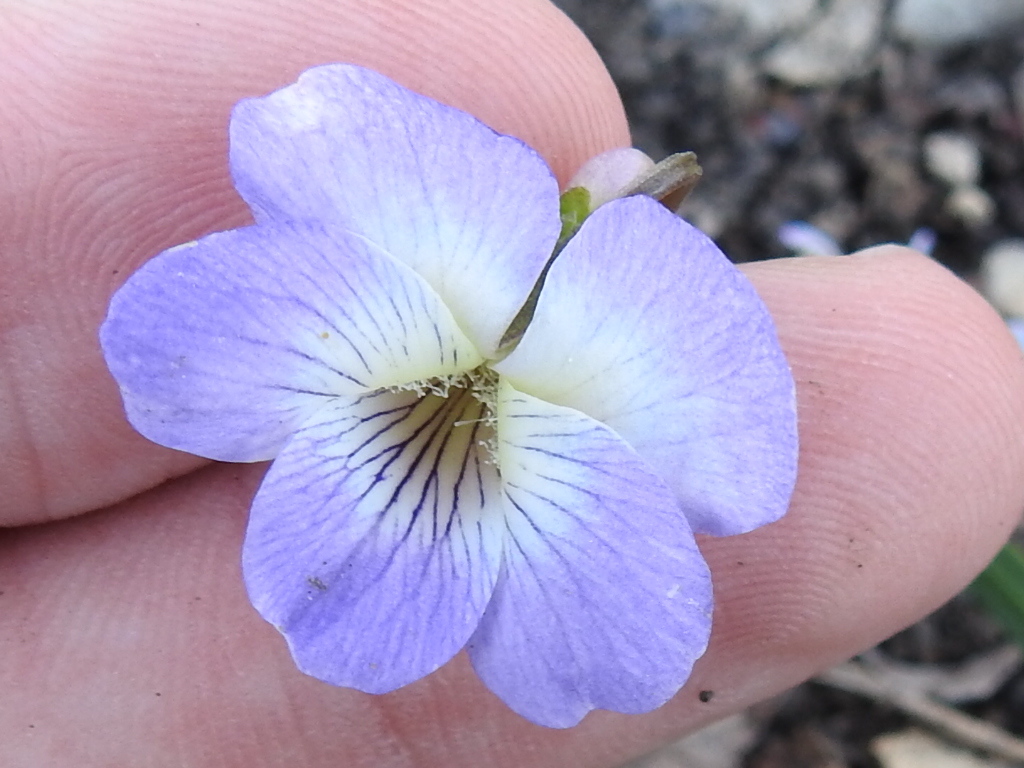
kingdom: Plantae
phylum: Tracheophyta
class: Magnoliopsida
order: Malpighiales
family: Violaceae
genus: Viola
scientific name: Viola sororia
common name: Dooryard violet
